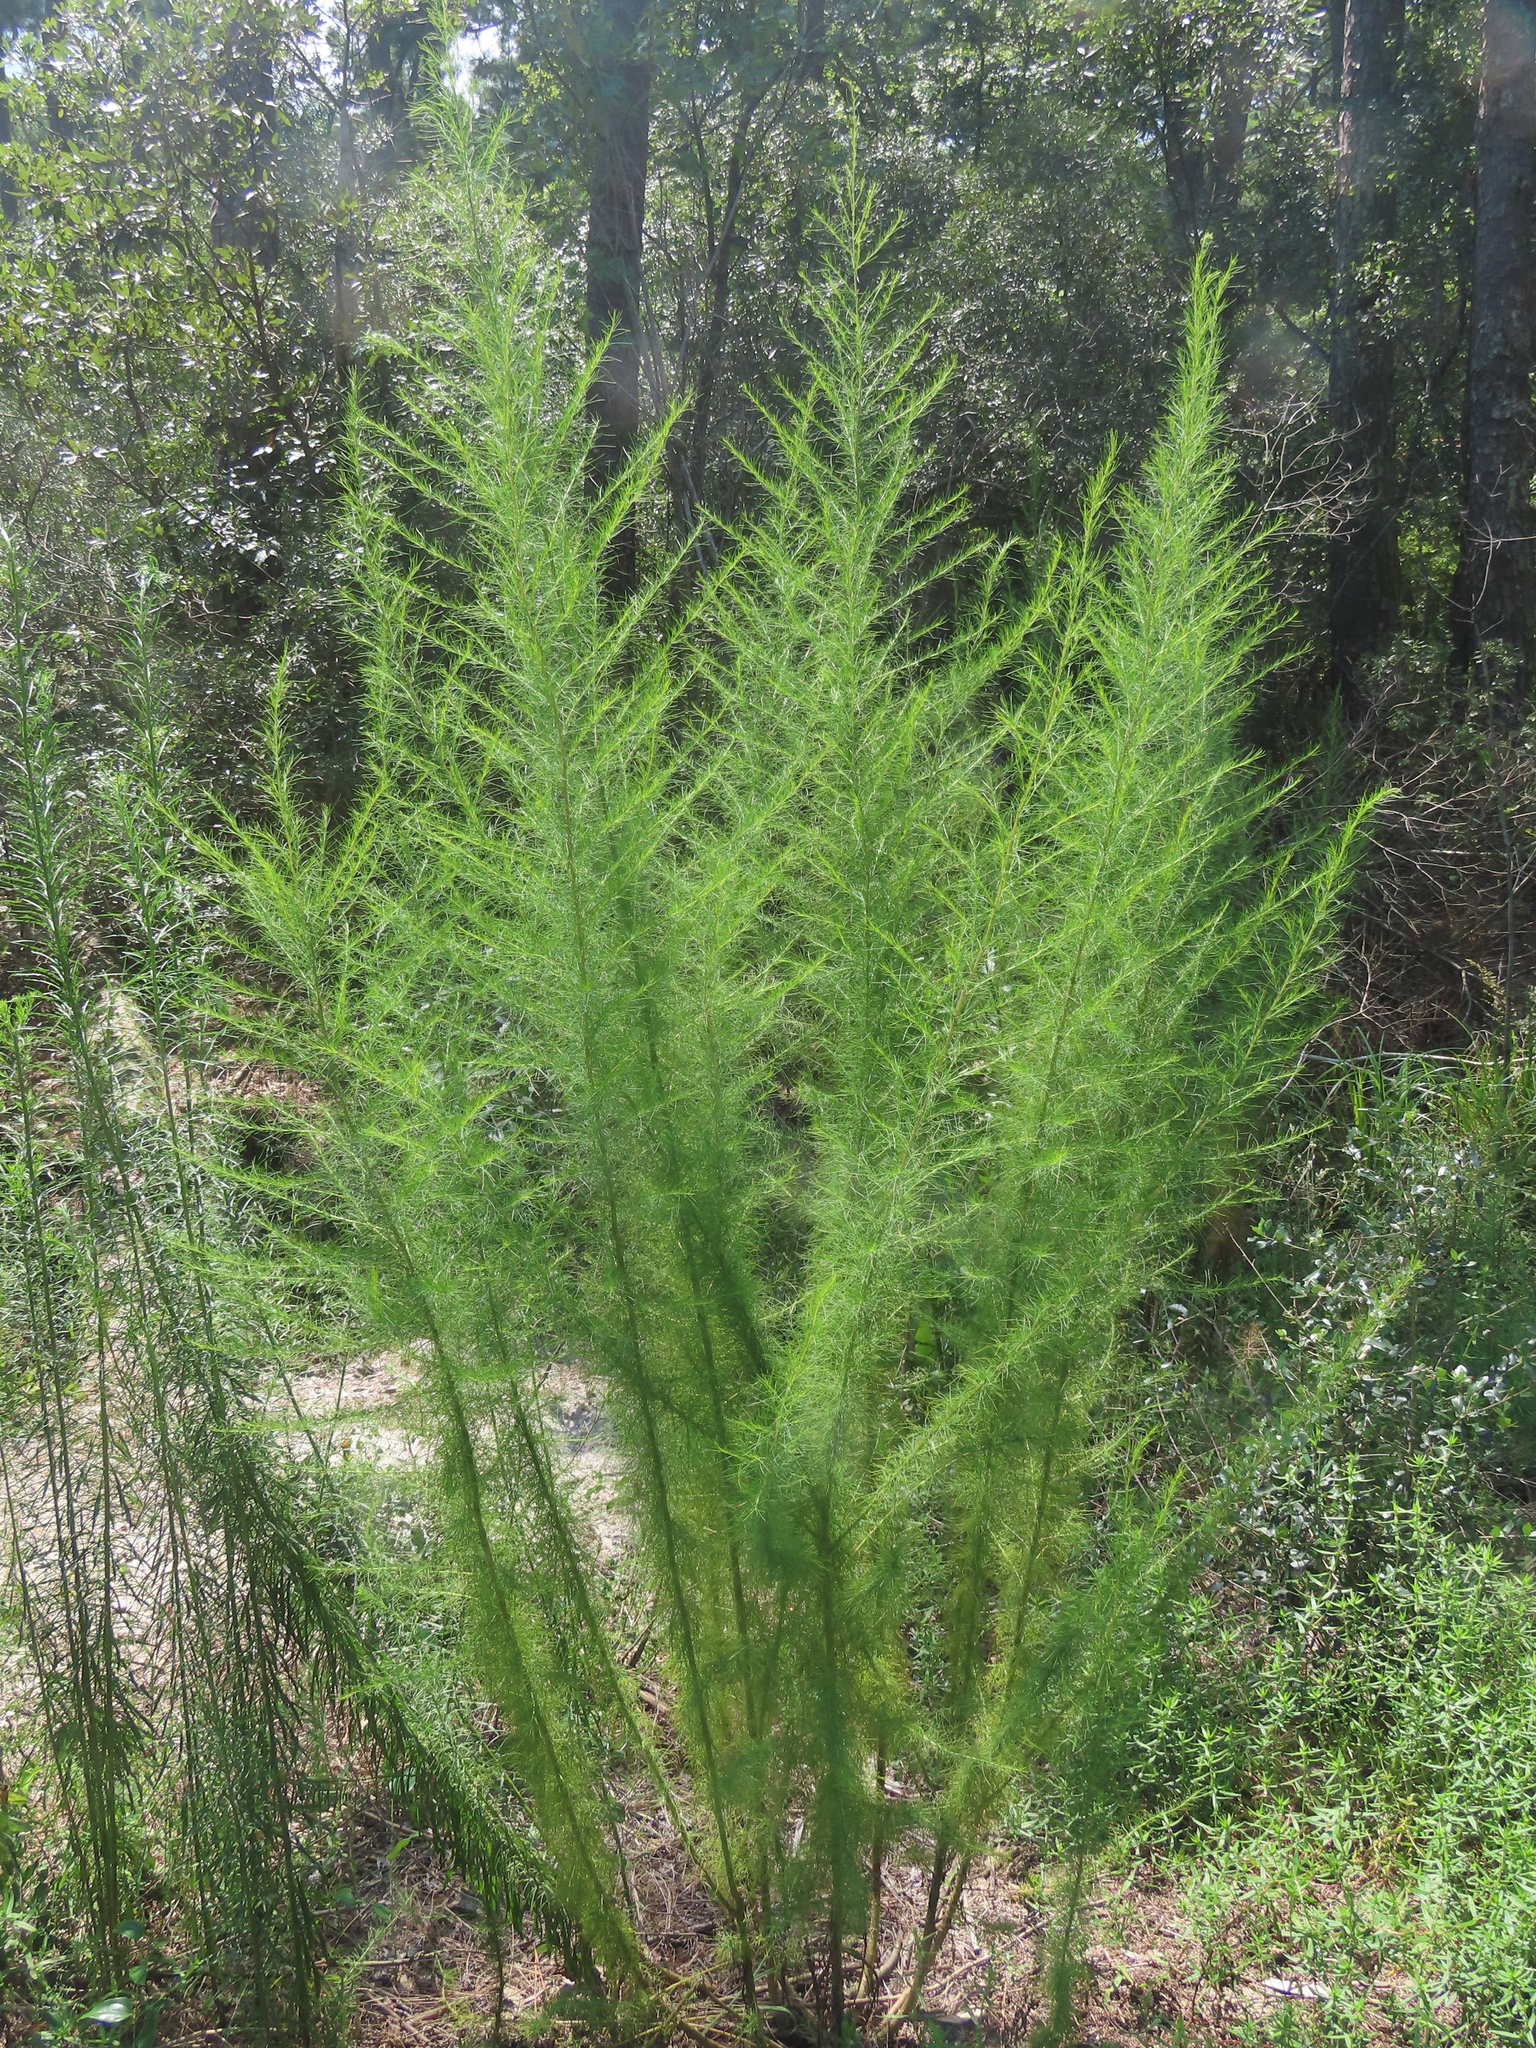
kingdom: Plantae
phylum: Tracheophyta
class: Magnoliopsida
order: Asterales
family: Asteraceae
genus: Eupatorium
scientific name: Eupatorium capillifolium
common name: Dog-fennel
